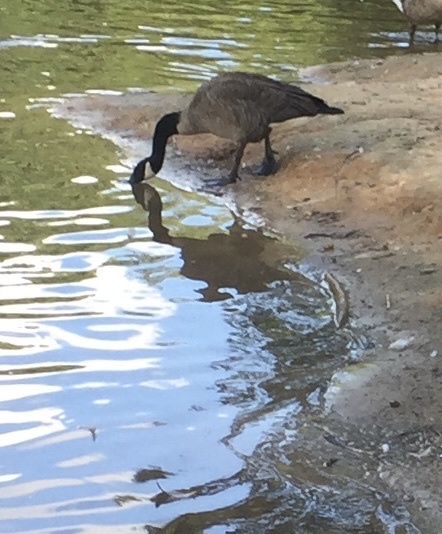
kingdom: Animalia
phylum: Chordata
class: Aves
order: Anseriformes
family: Anatidae
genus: Branta
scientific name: Branta canadensis
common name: Canada goose
